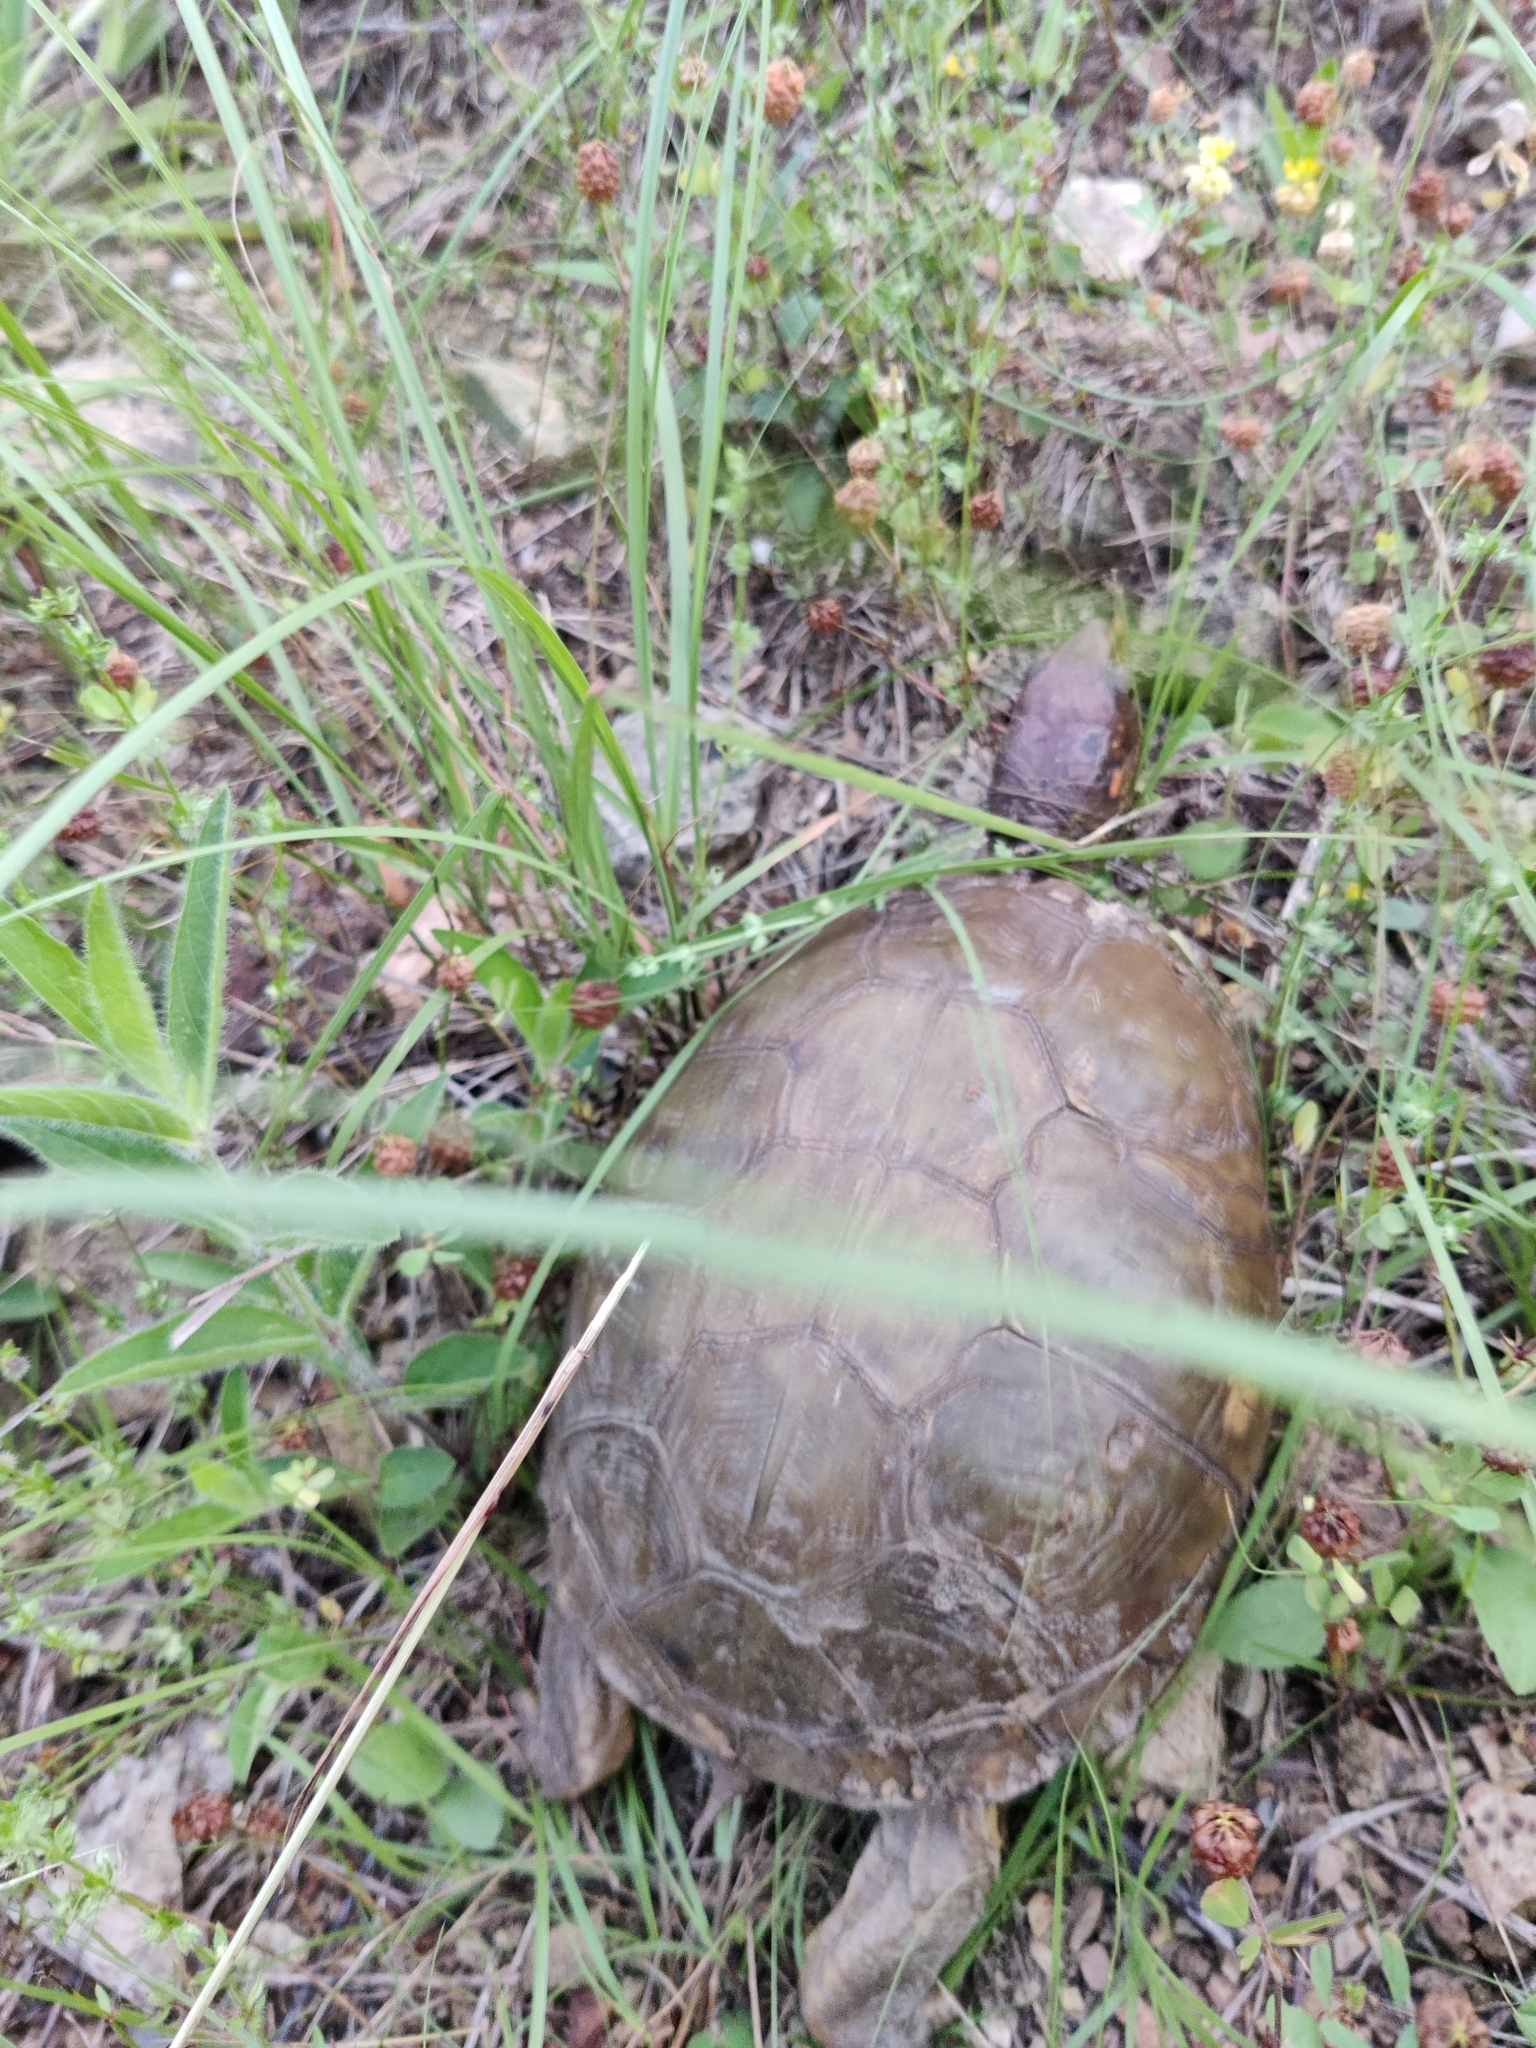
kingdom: Animalia
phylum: Chordata
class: Testudines
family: Emydidae
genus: Terrapene
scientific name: Terrapene carolina
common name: Common box turtle
